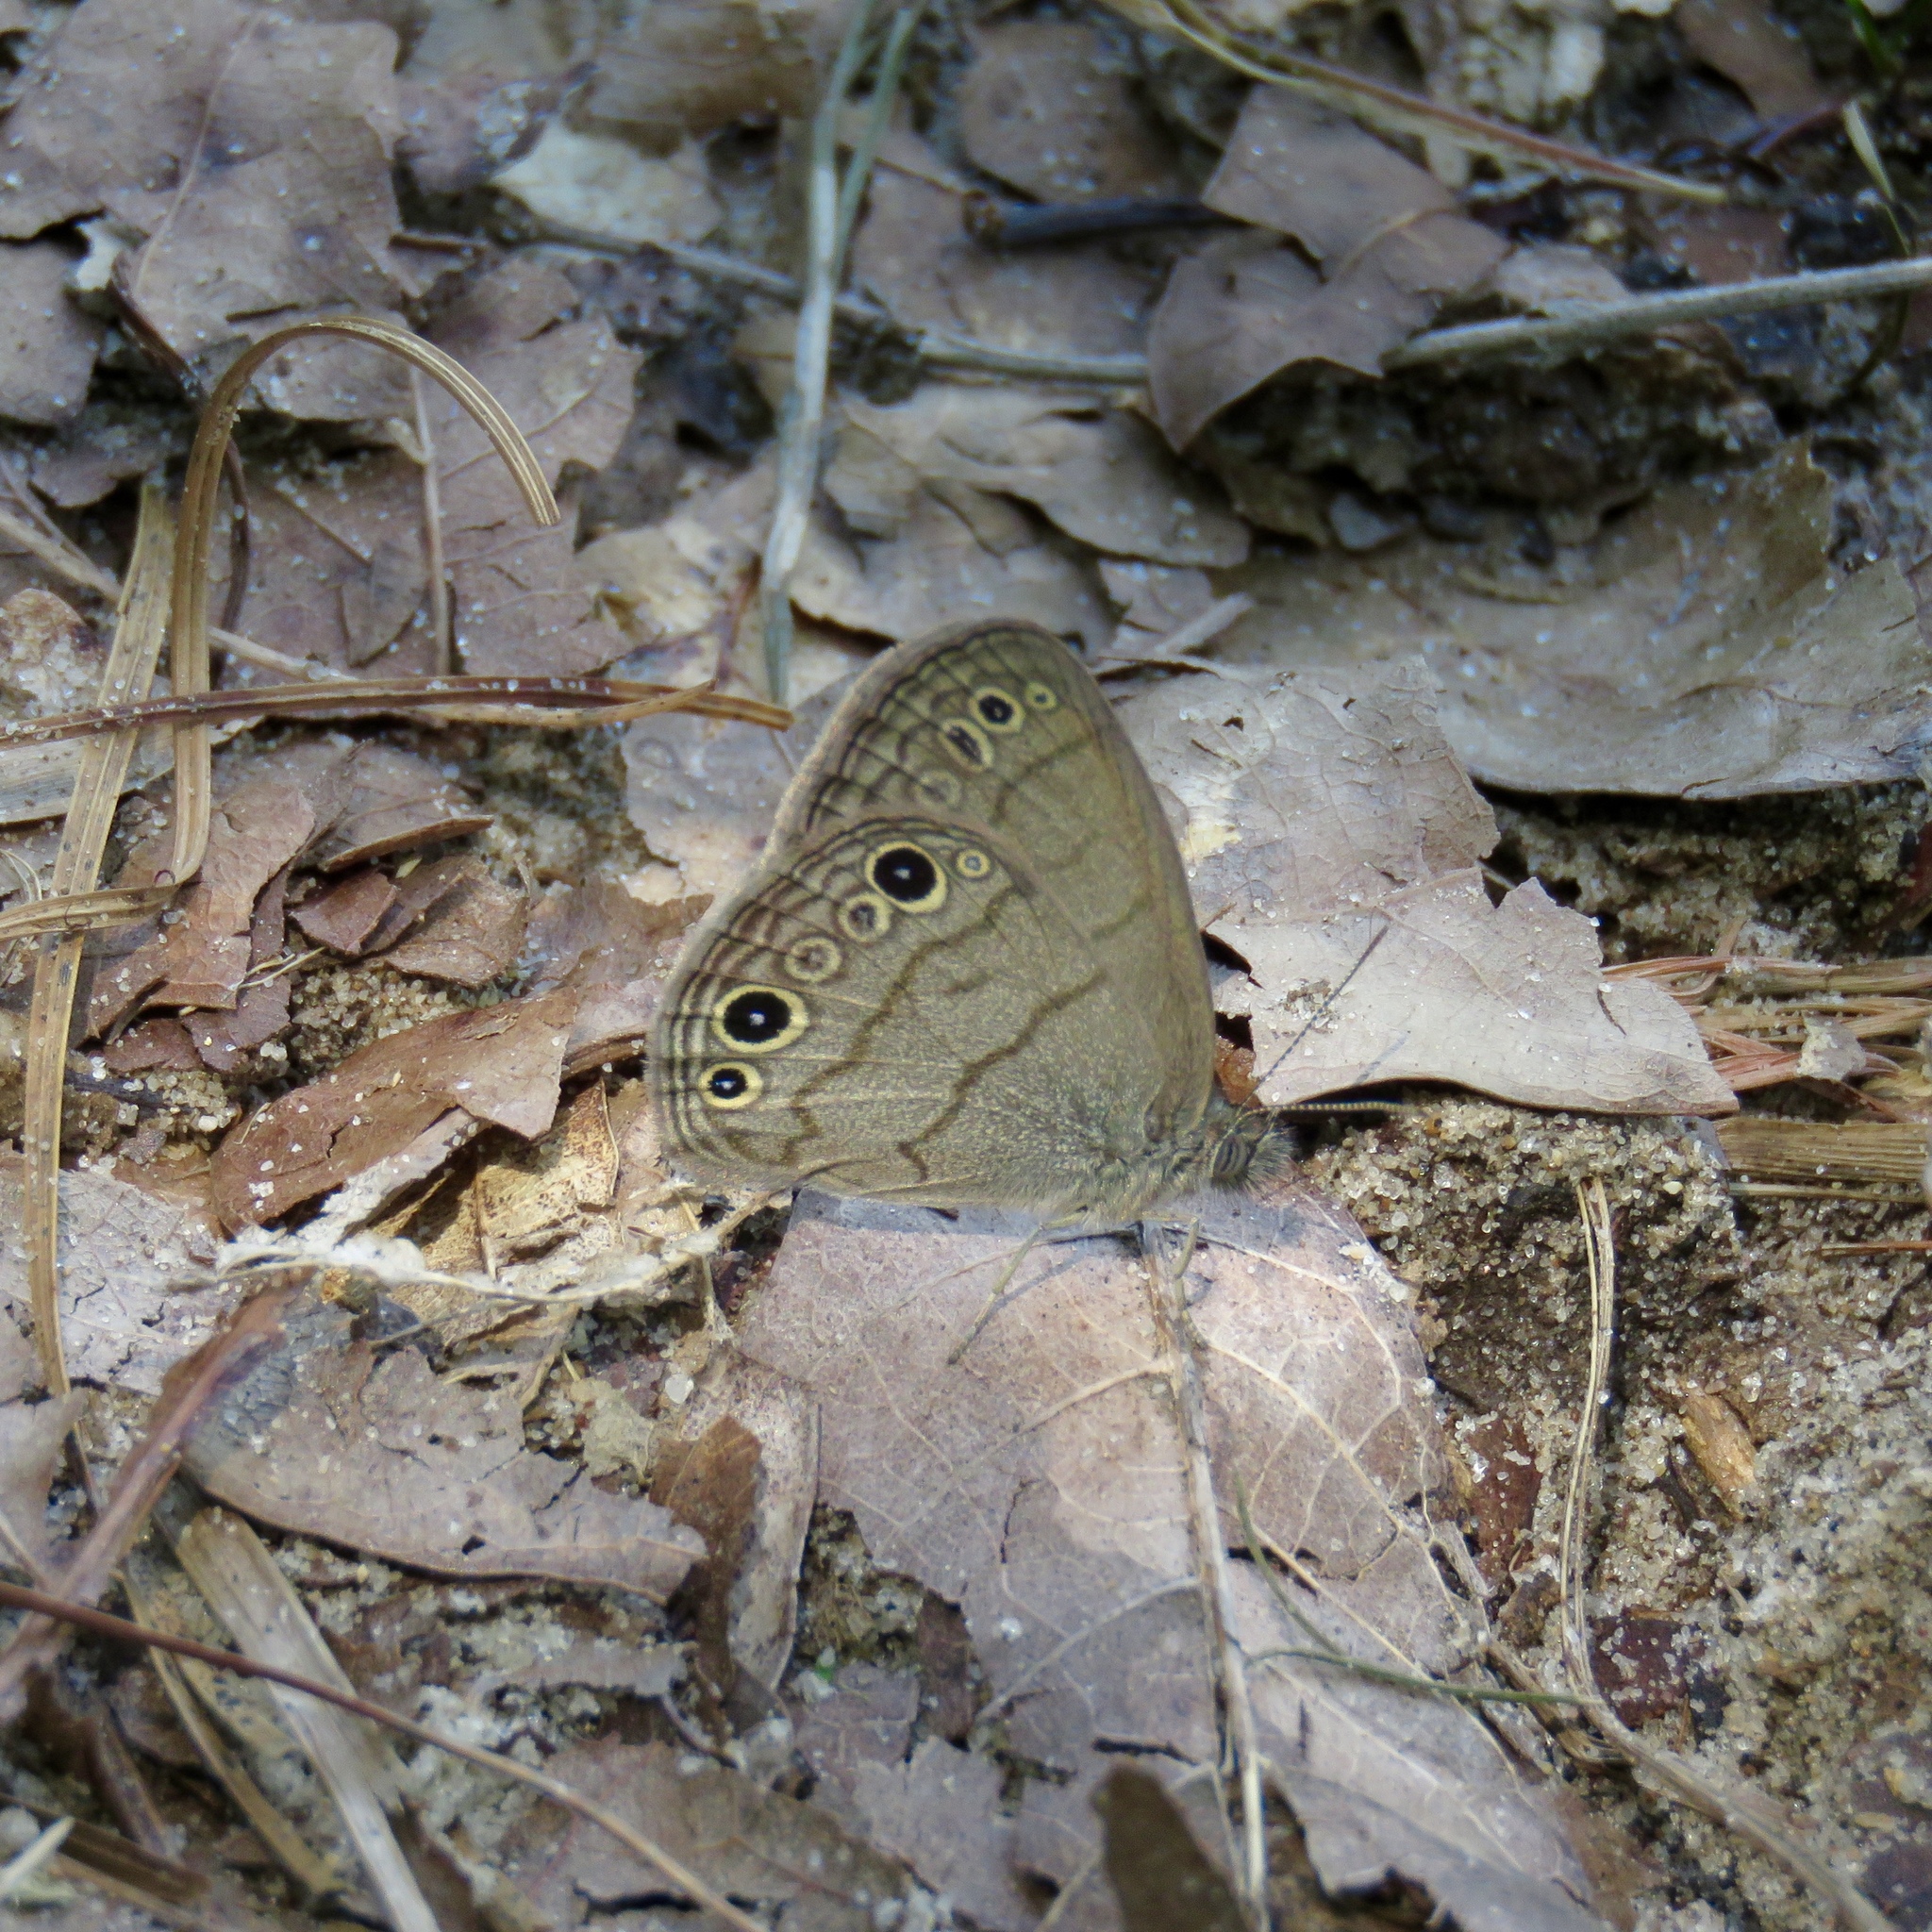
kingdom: Animalia
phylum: Arthropoda
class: Insecta
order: Lepidoptera
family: Nymphalidae
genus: Hermeuptychia
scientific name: Hermeuptychia hermes
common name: Hermes satyr
